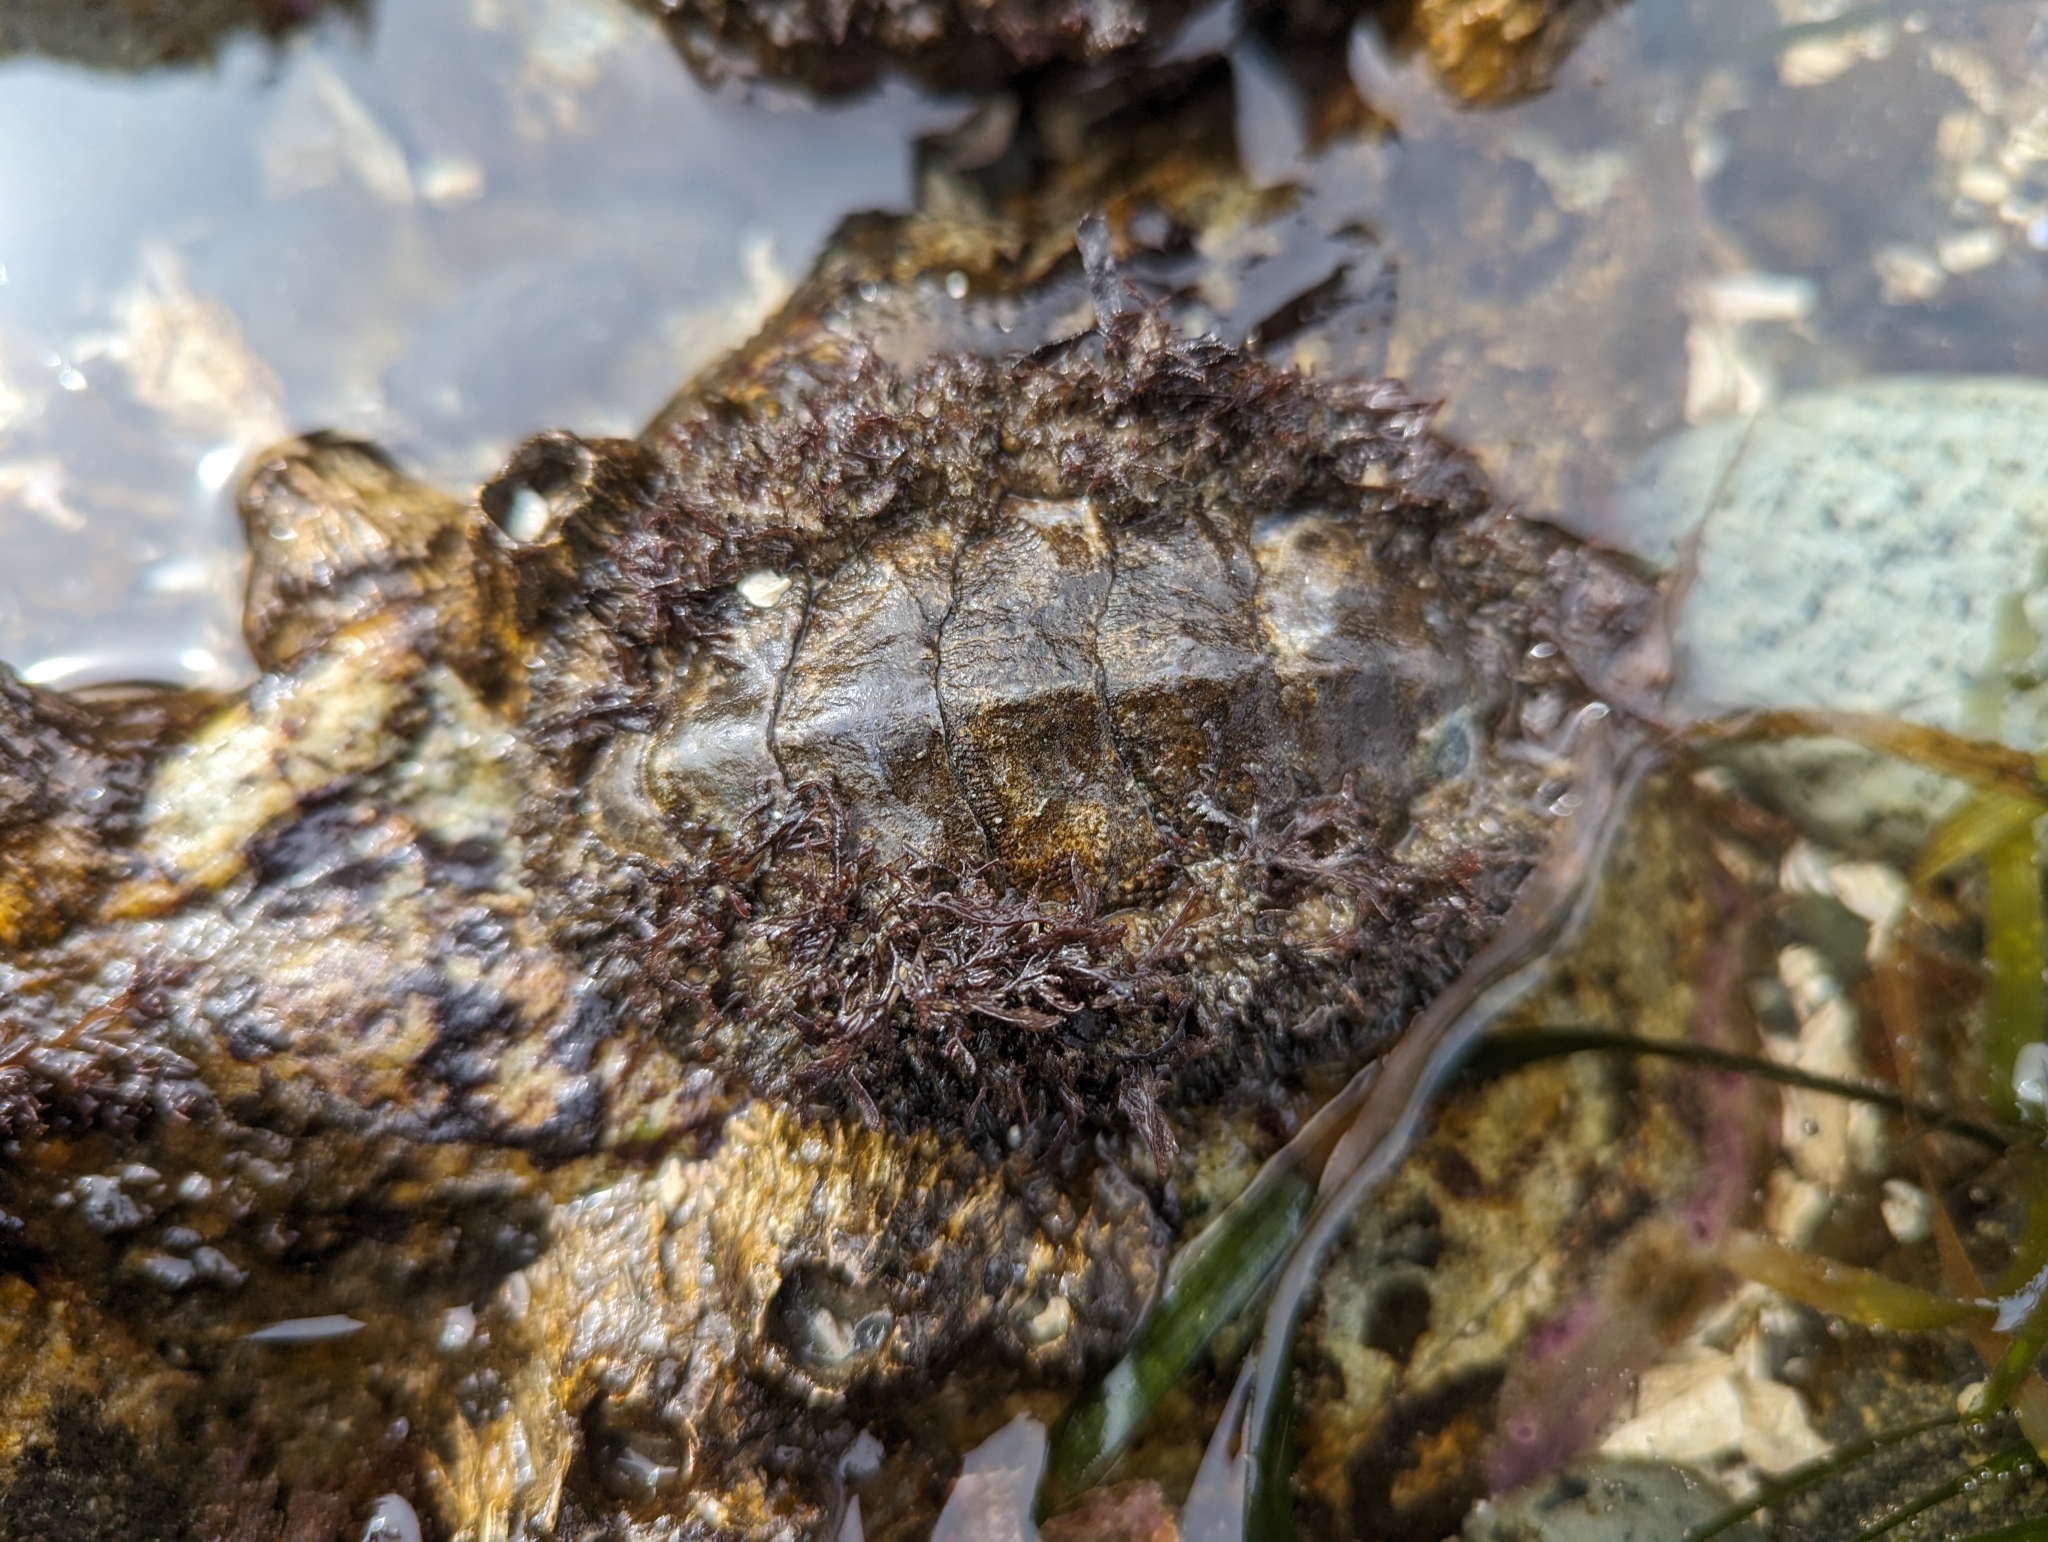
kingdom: Animalia
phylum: Mollusca
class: Polyplacophora
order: Chitonida
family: Mopaliidae
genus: Mopalia
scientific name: Mopalia muscosa
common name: Mossy chiton
